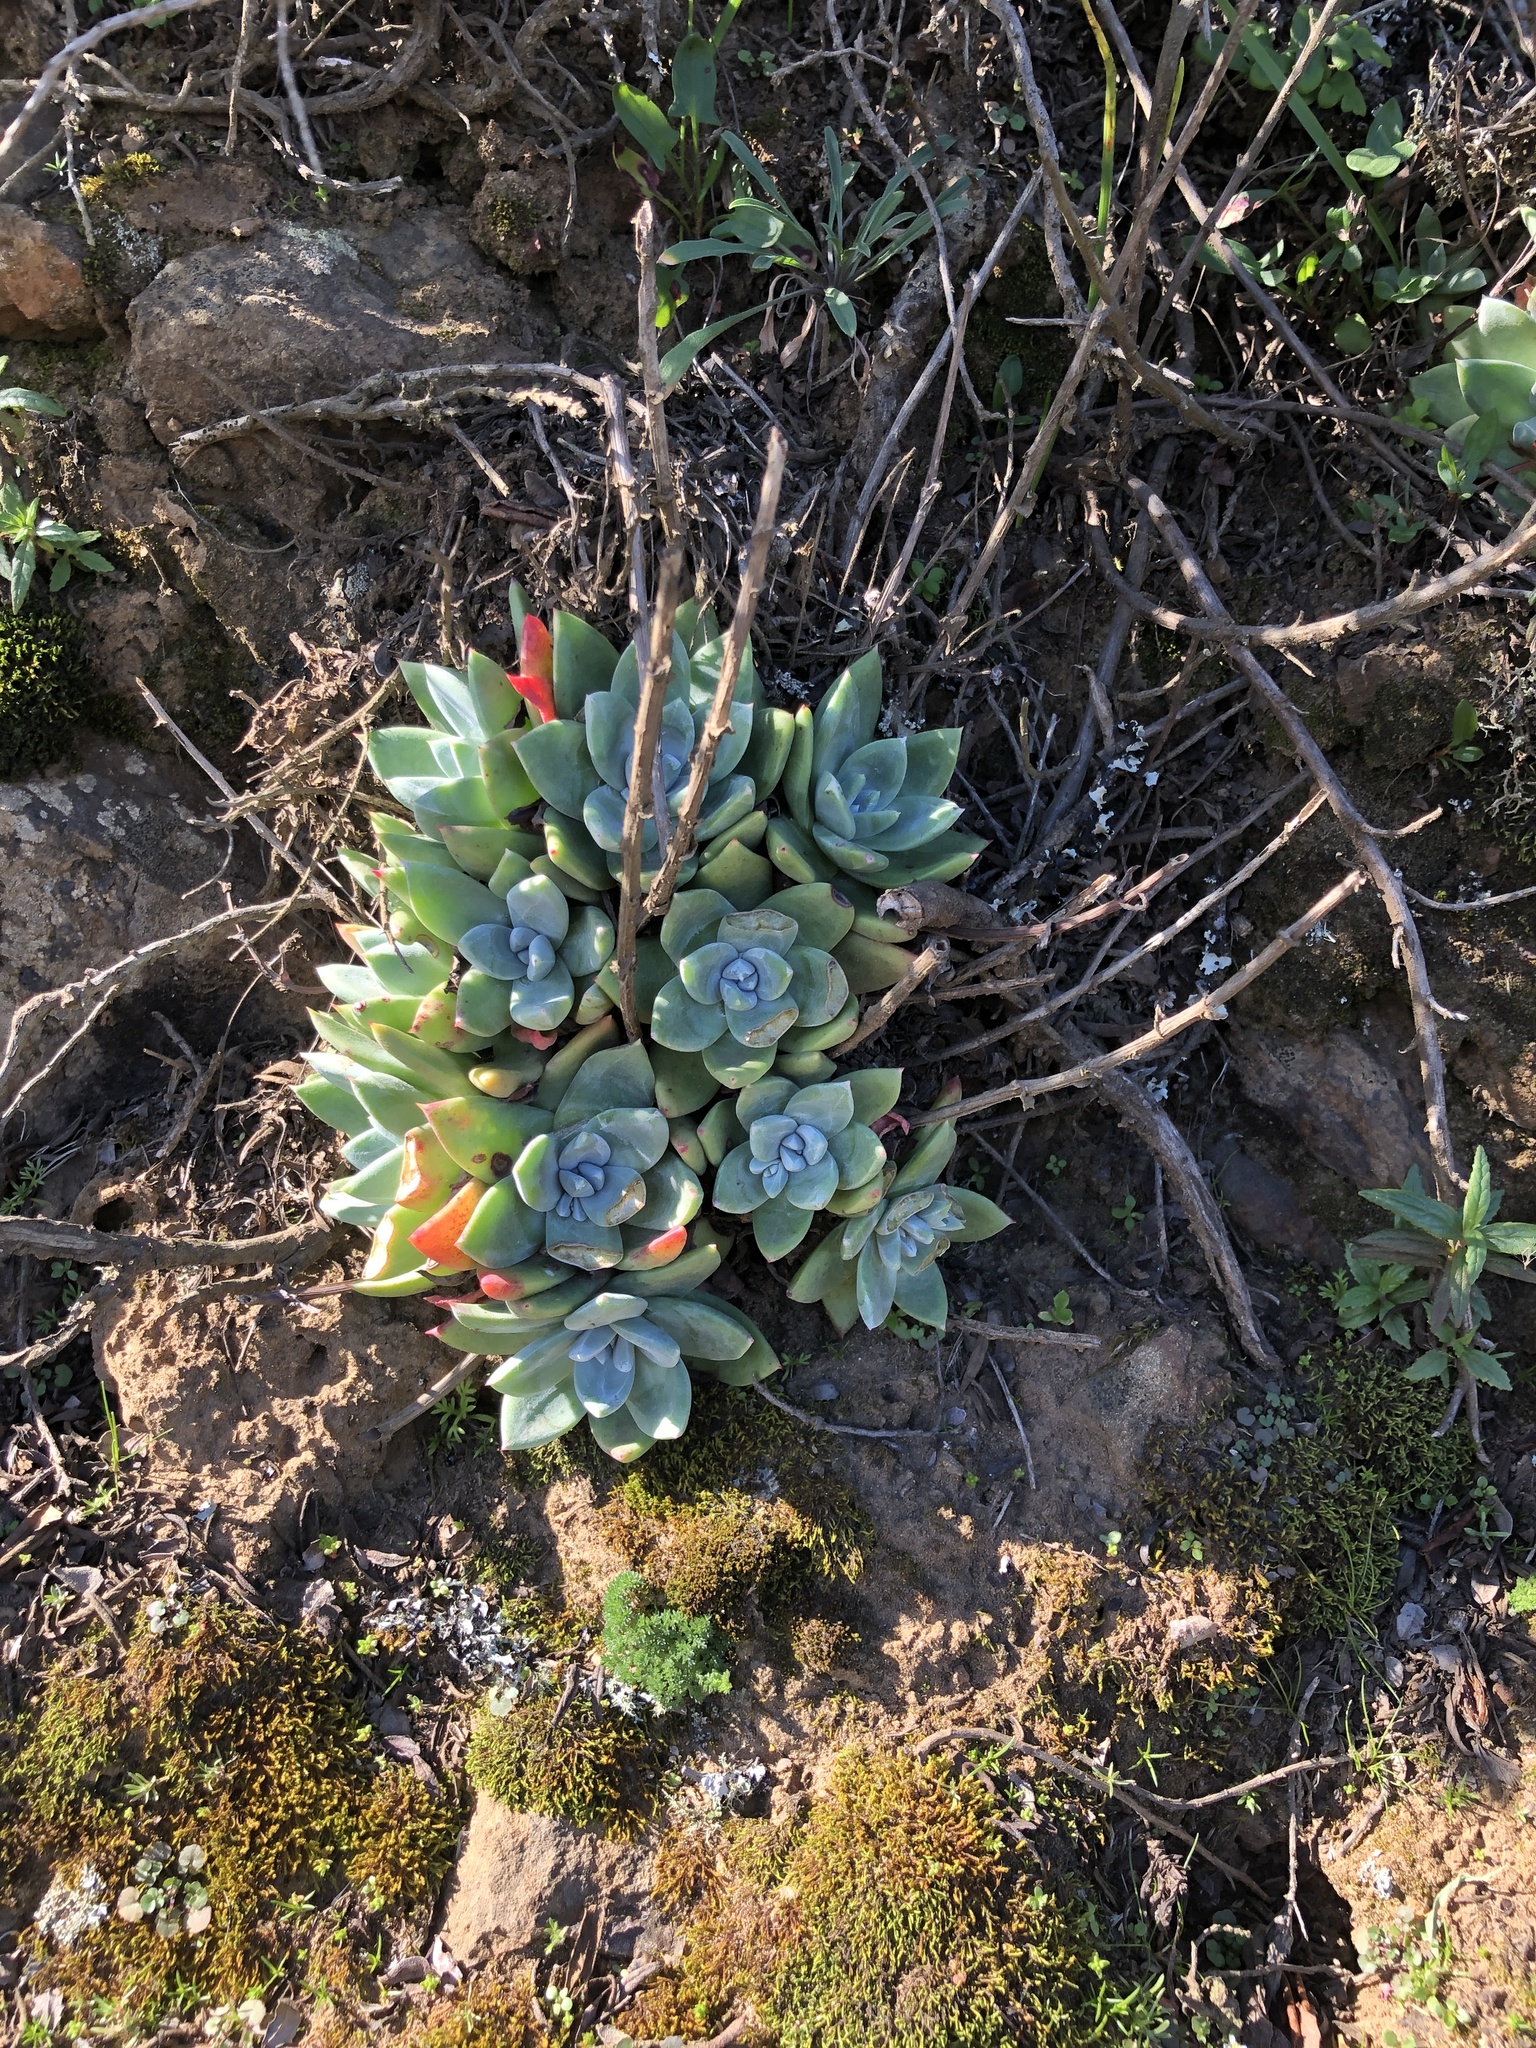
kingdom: Plantae
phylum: Tracheophyta
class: Magnoliopsida
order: Saxifragales
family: Crassulaceae
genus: Dudleya
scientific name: Dudleya farinosa
